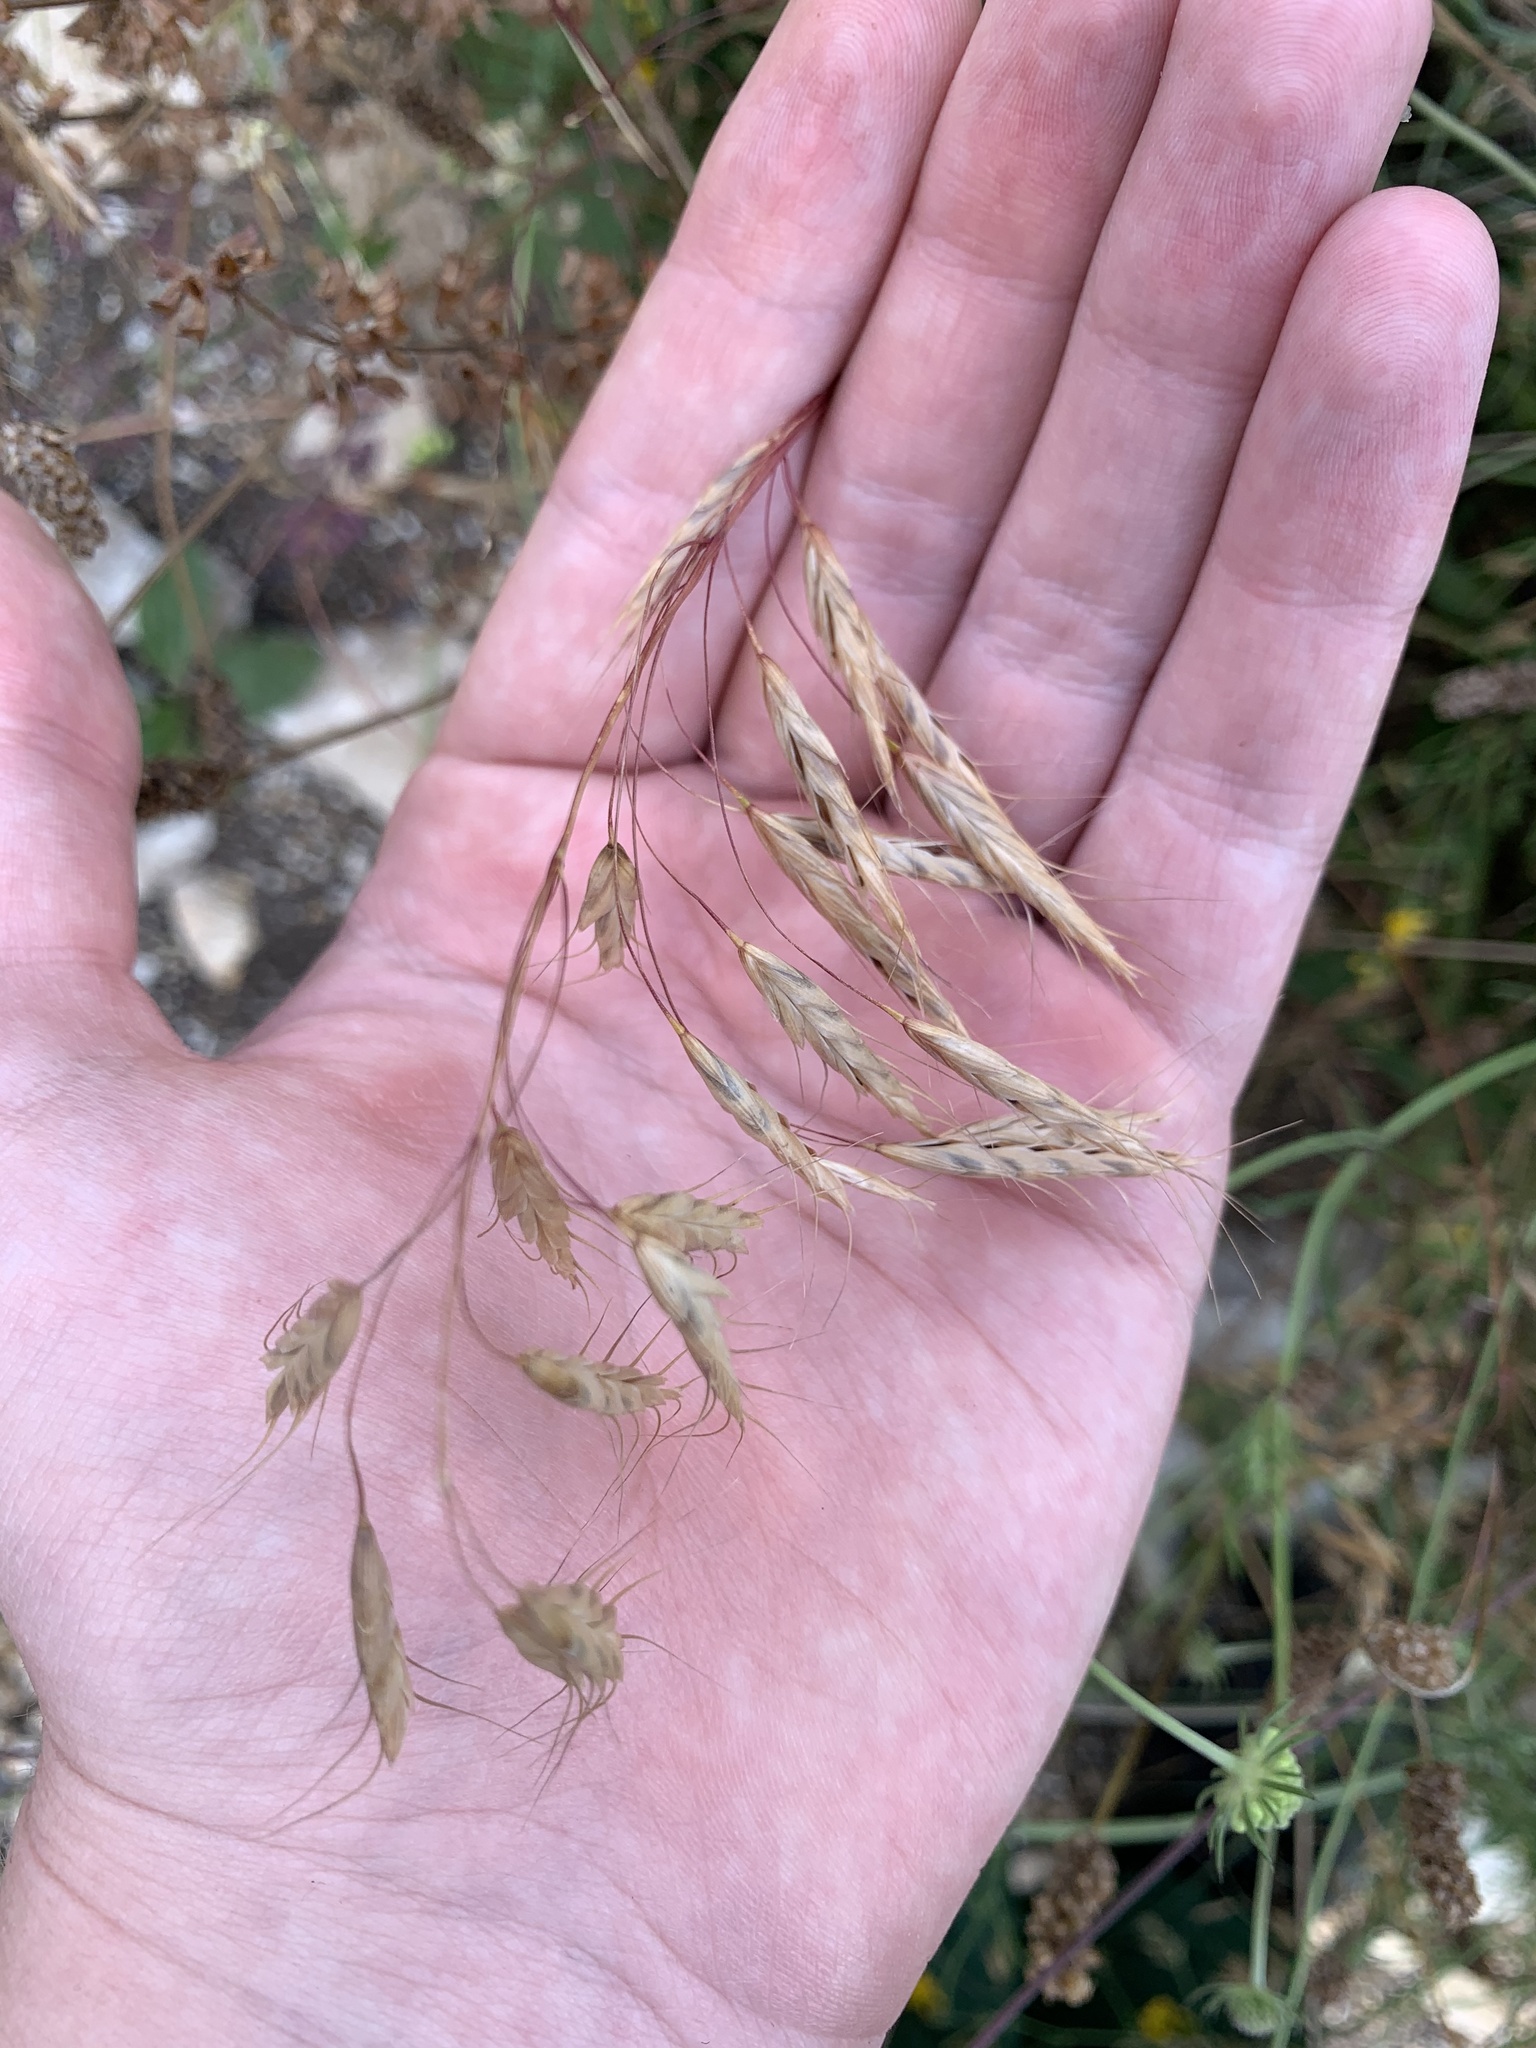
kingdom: Plantae
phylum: Tracheophyta
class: Liliopsida
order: Poales
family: Poaceae
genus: Bromus
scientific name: Bromus squarrosus
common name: Corn brome
